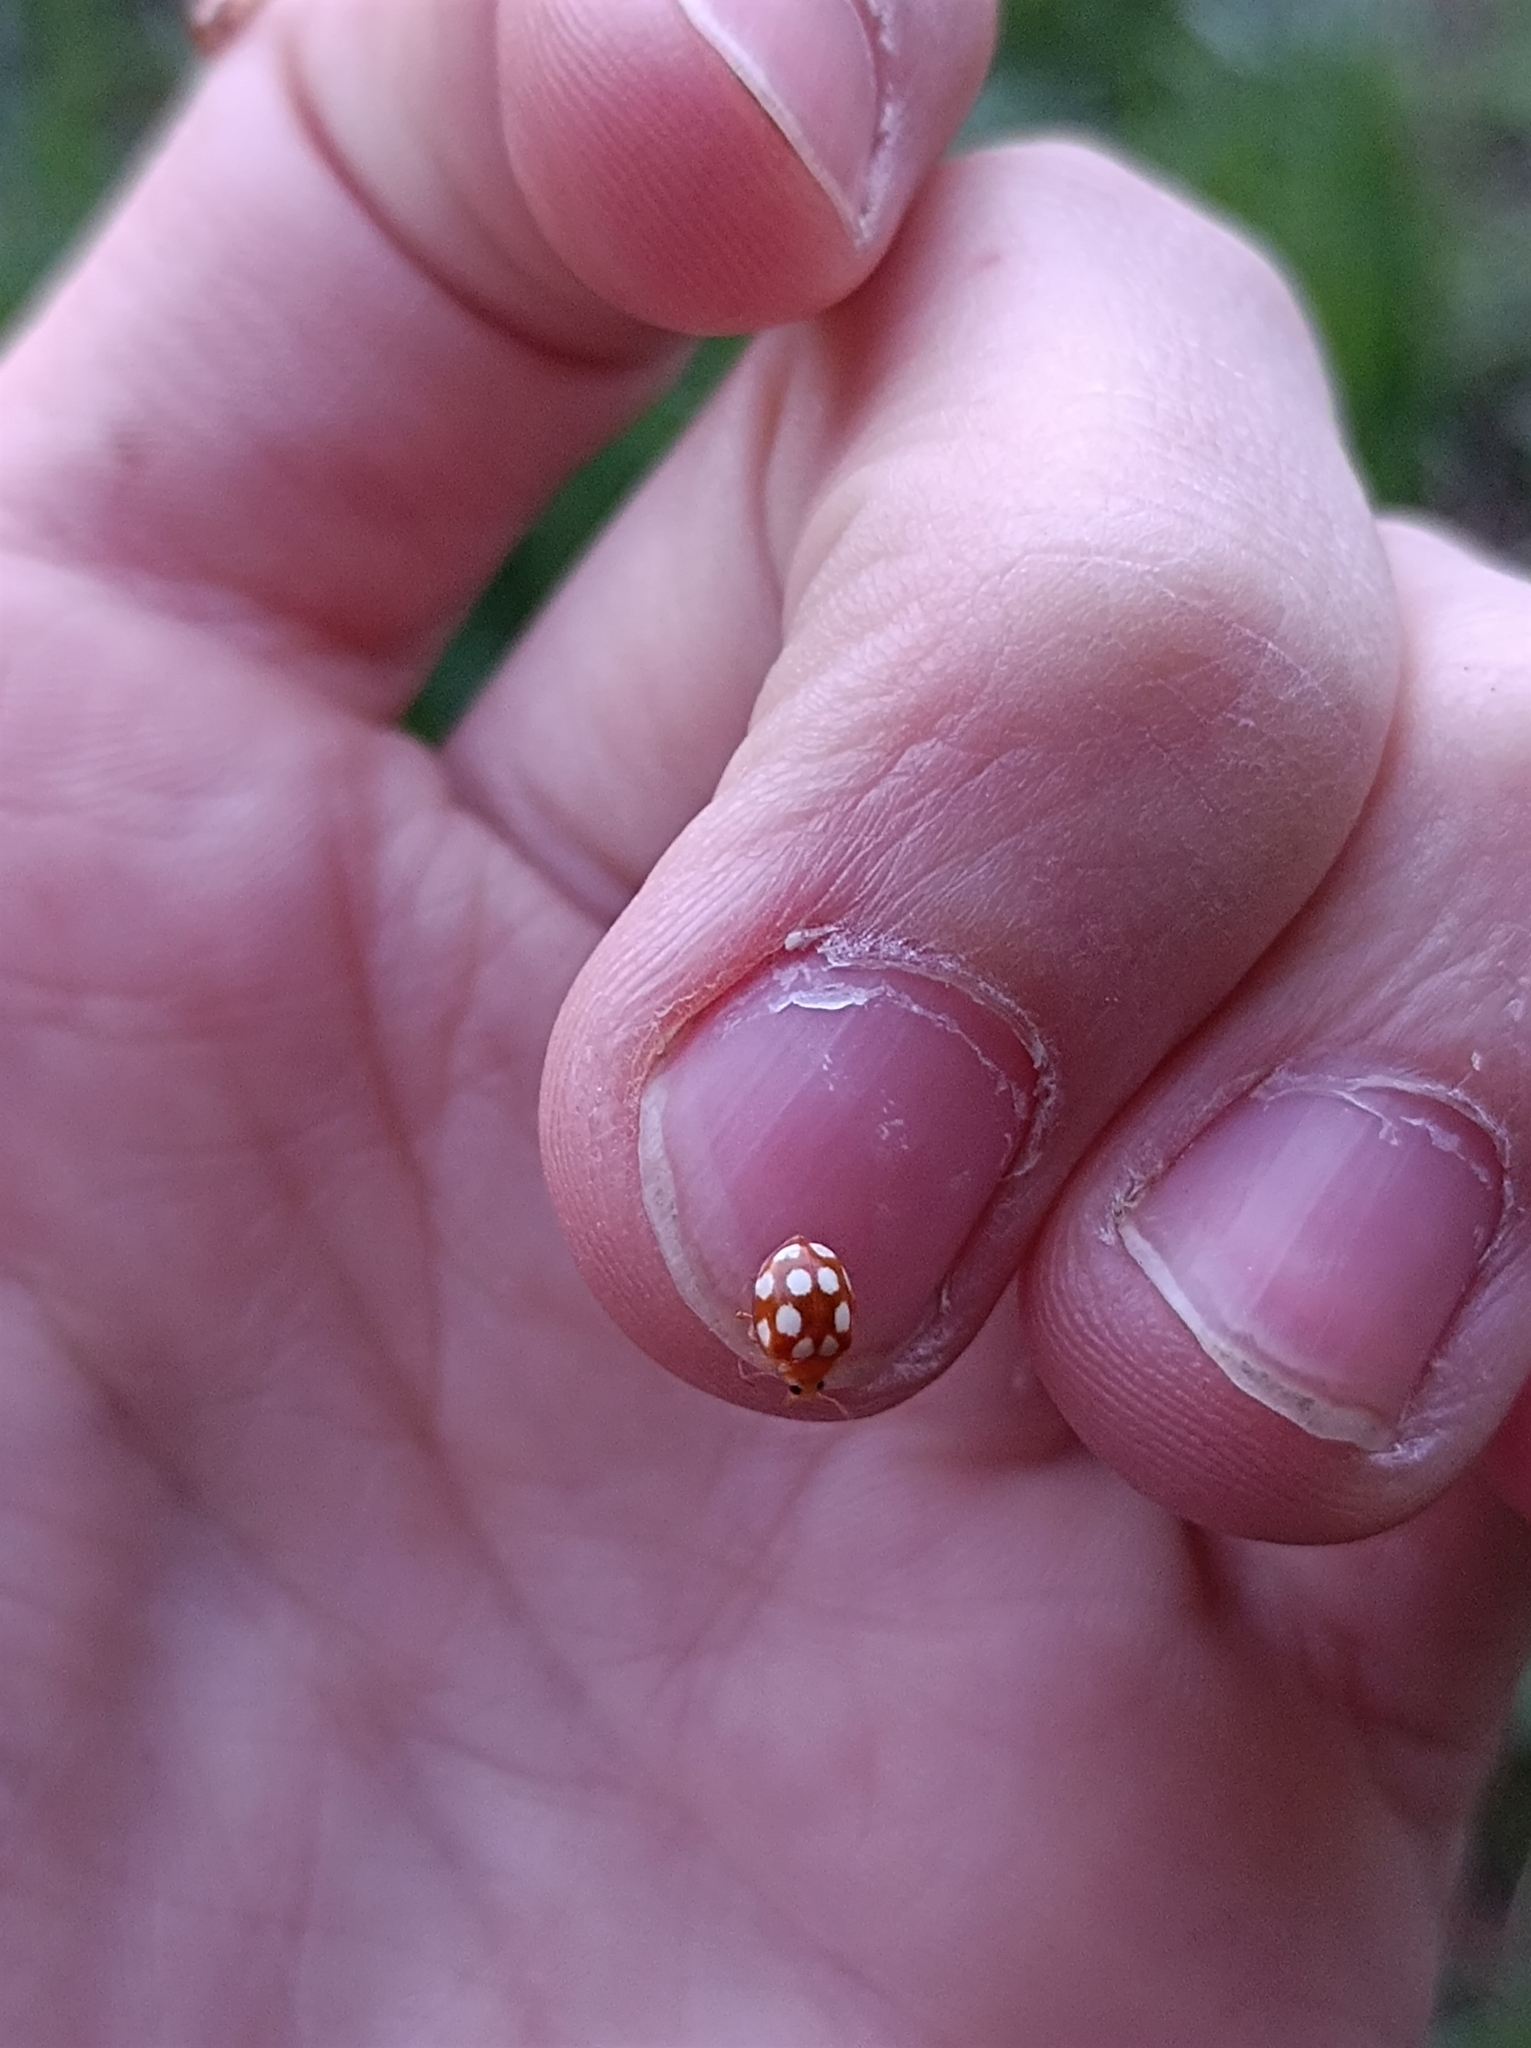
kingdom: Animalia
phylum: Arthropoda
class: Insecta
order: Coleoptera
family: Coccinellidae
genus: Vibidia
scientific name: Vibidia duodecimguttata
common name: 12-spot ladybird
